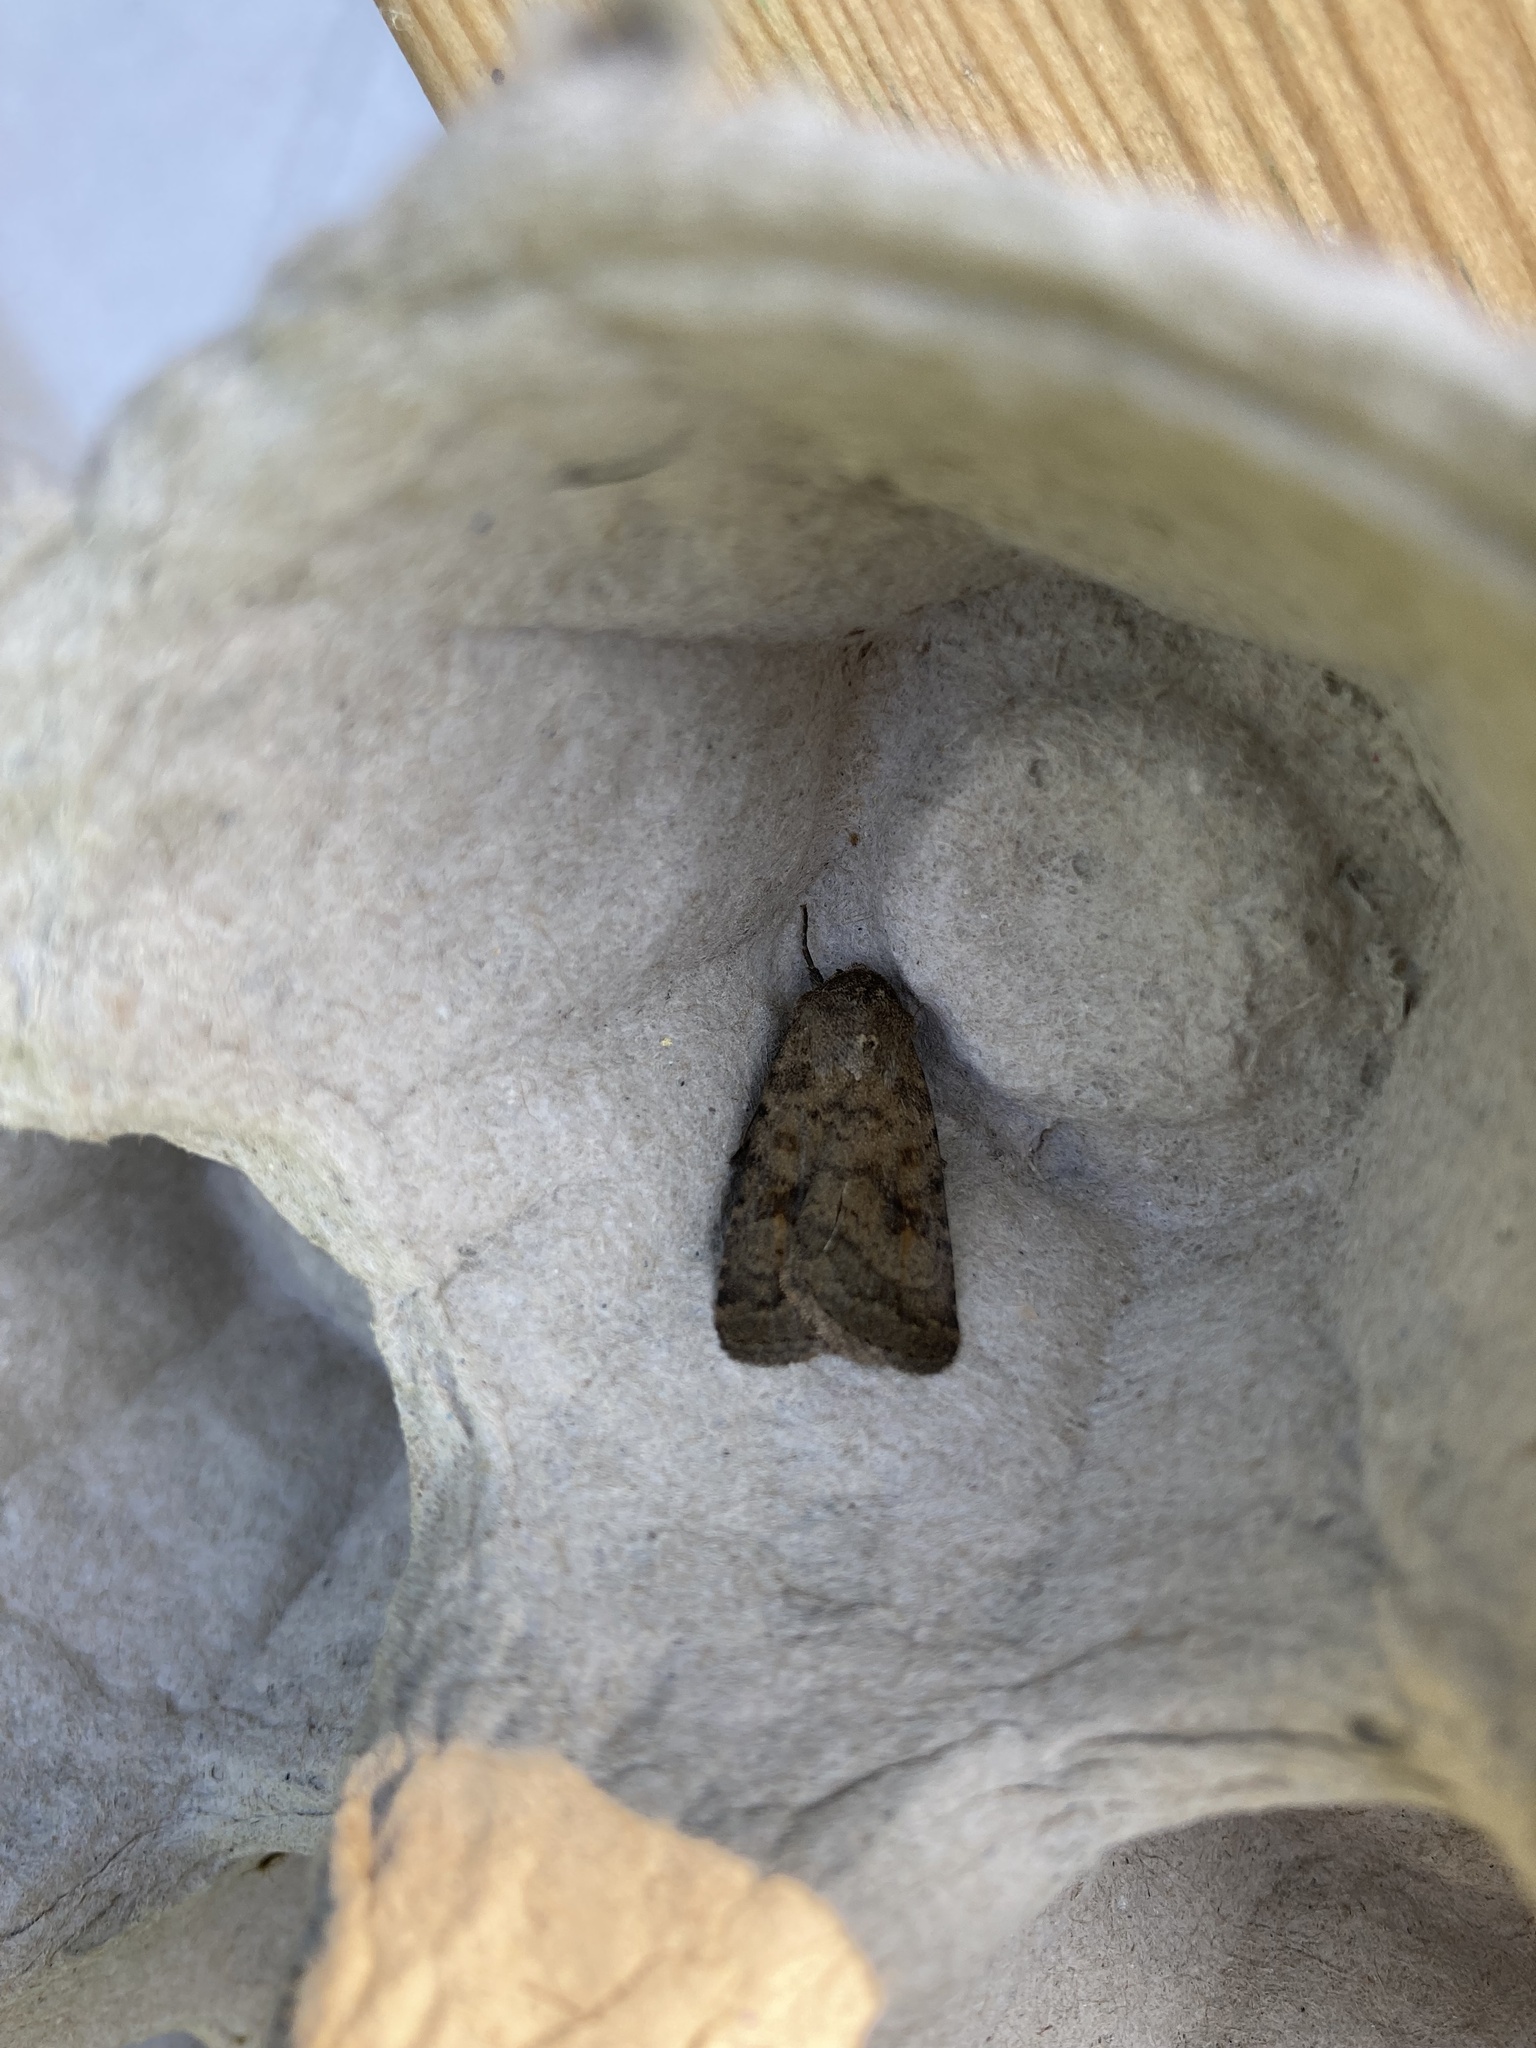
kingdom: Animalia
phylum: Arthropoda
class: Insecta
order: Lepidoptera
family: Noctuidae
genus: Caradrina
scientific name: Caradrina morpheus
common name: Mottled rustic
